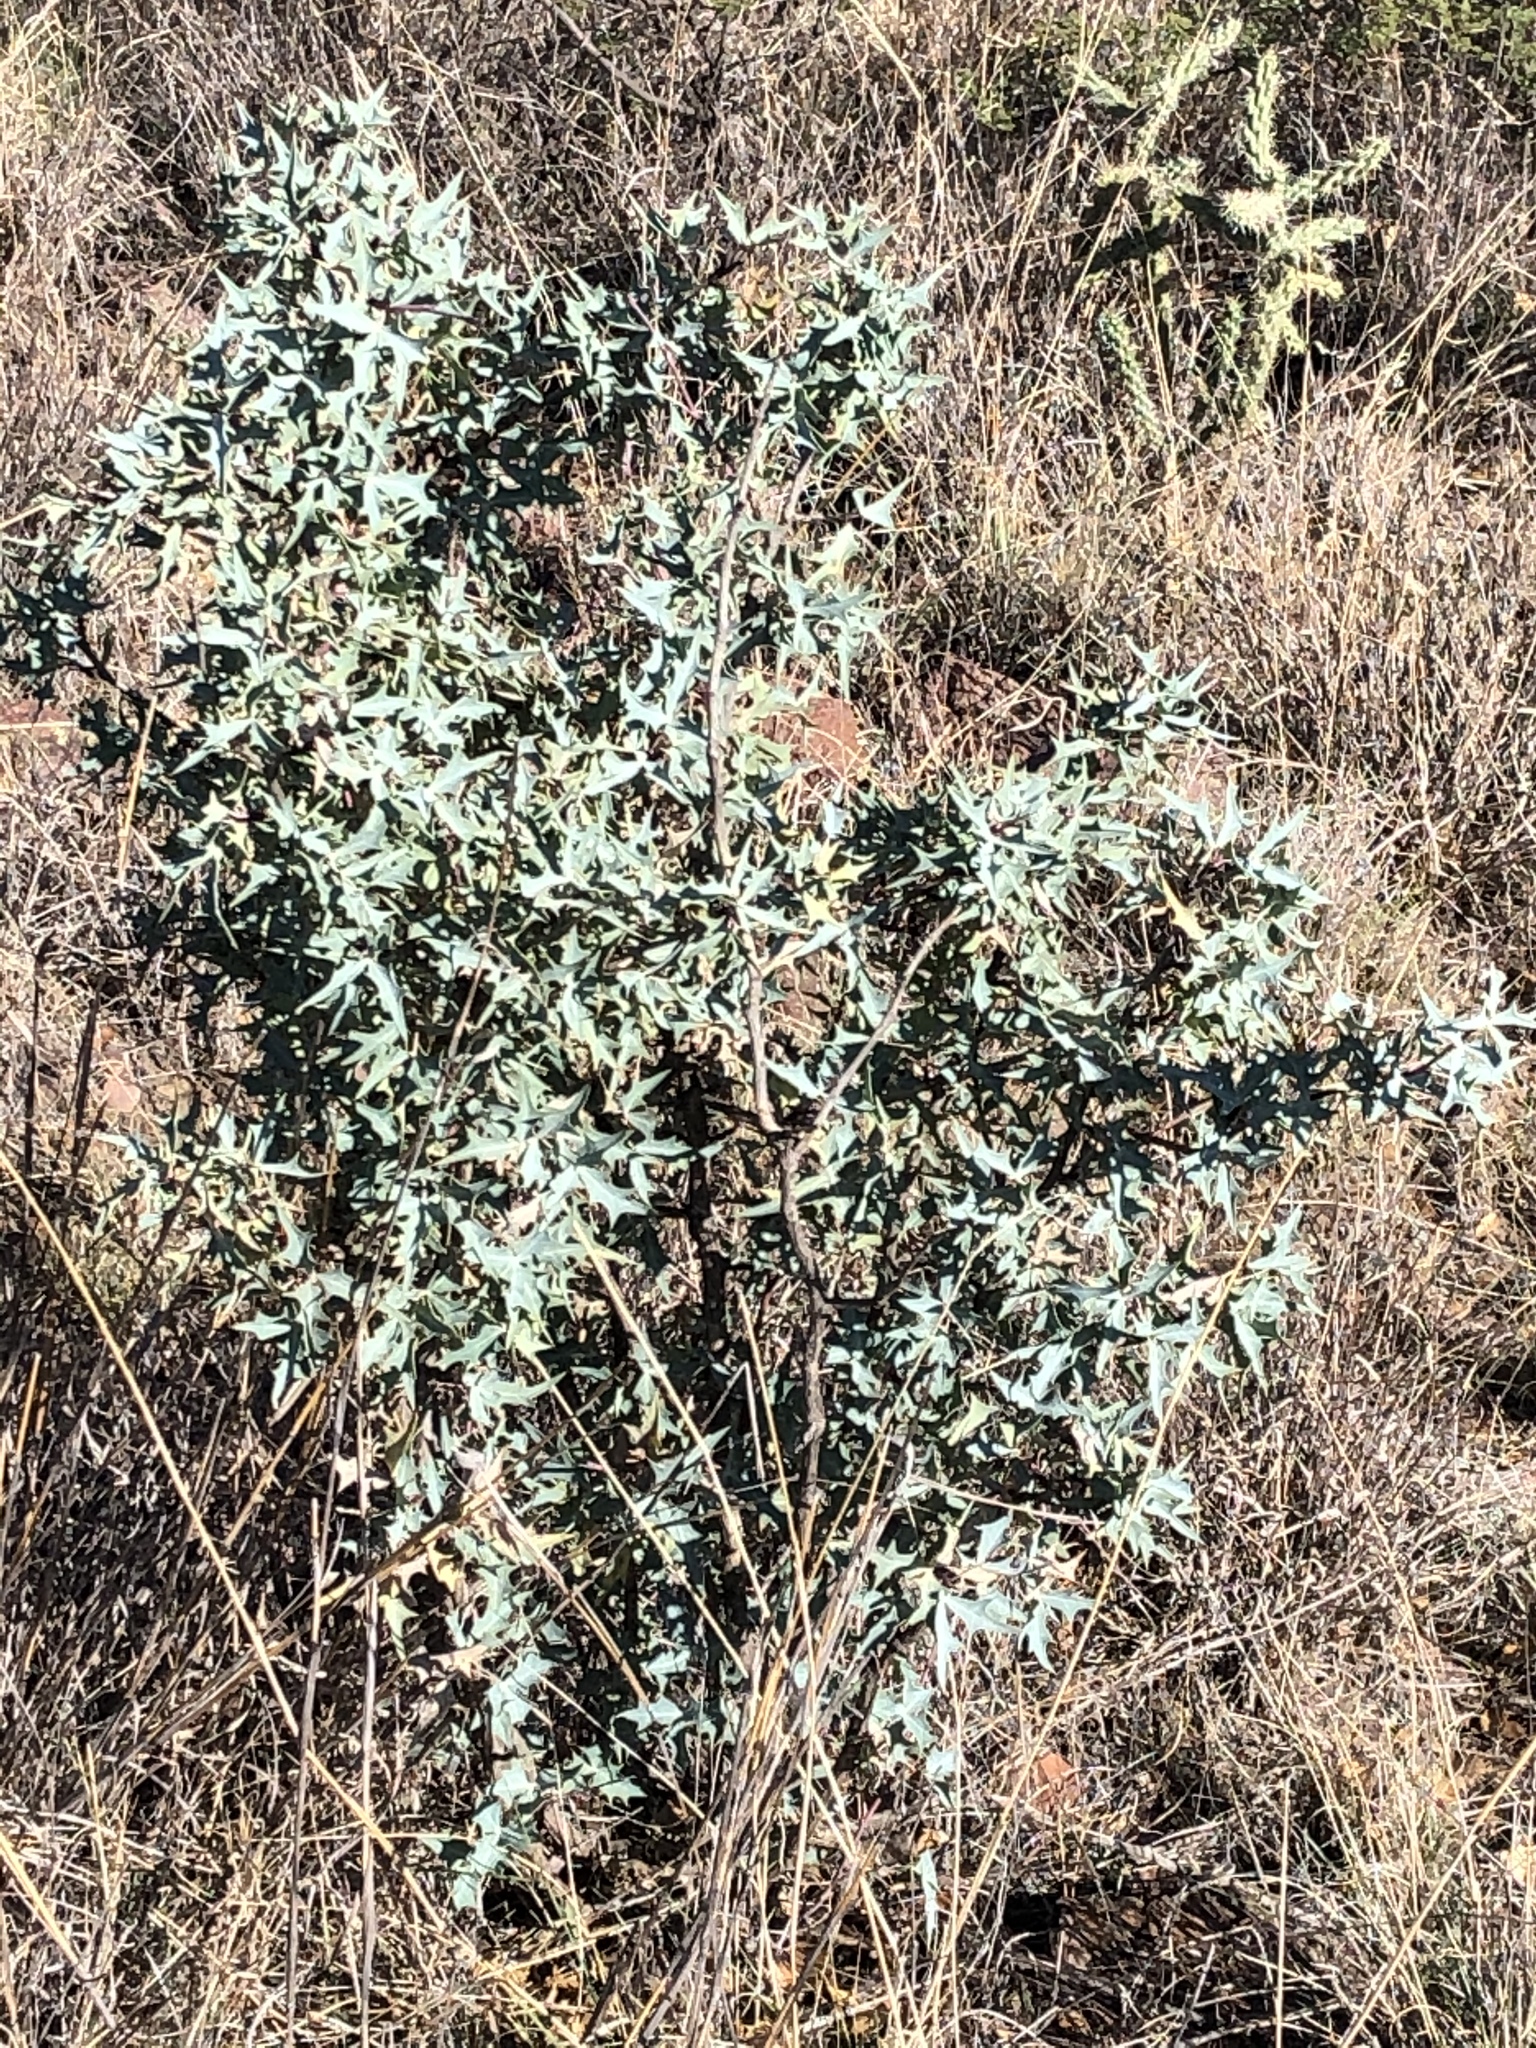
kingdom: Plantae
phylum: Tracheophyta
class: Magnoliopsida
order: Ranunculales
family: Berberidaceae
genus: Alloberberis
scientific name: Alloberberis trifoliolata
